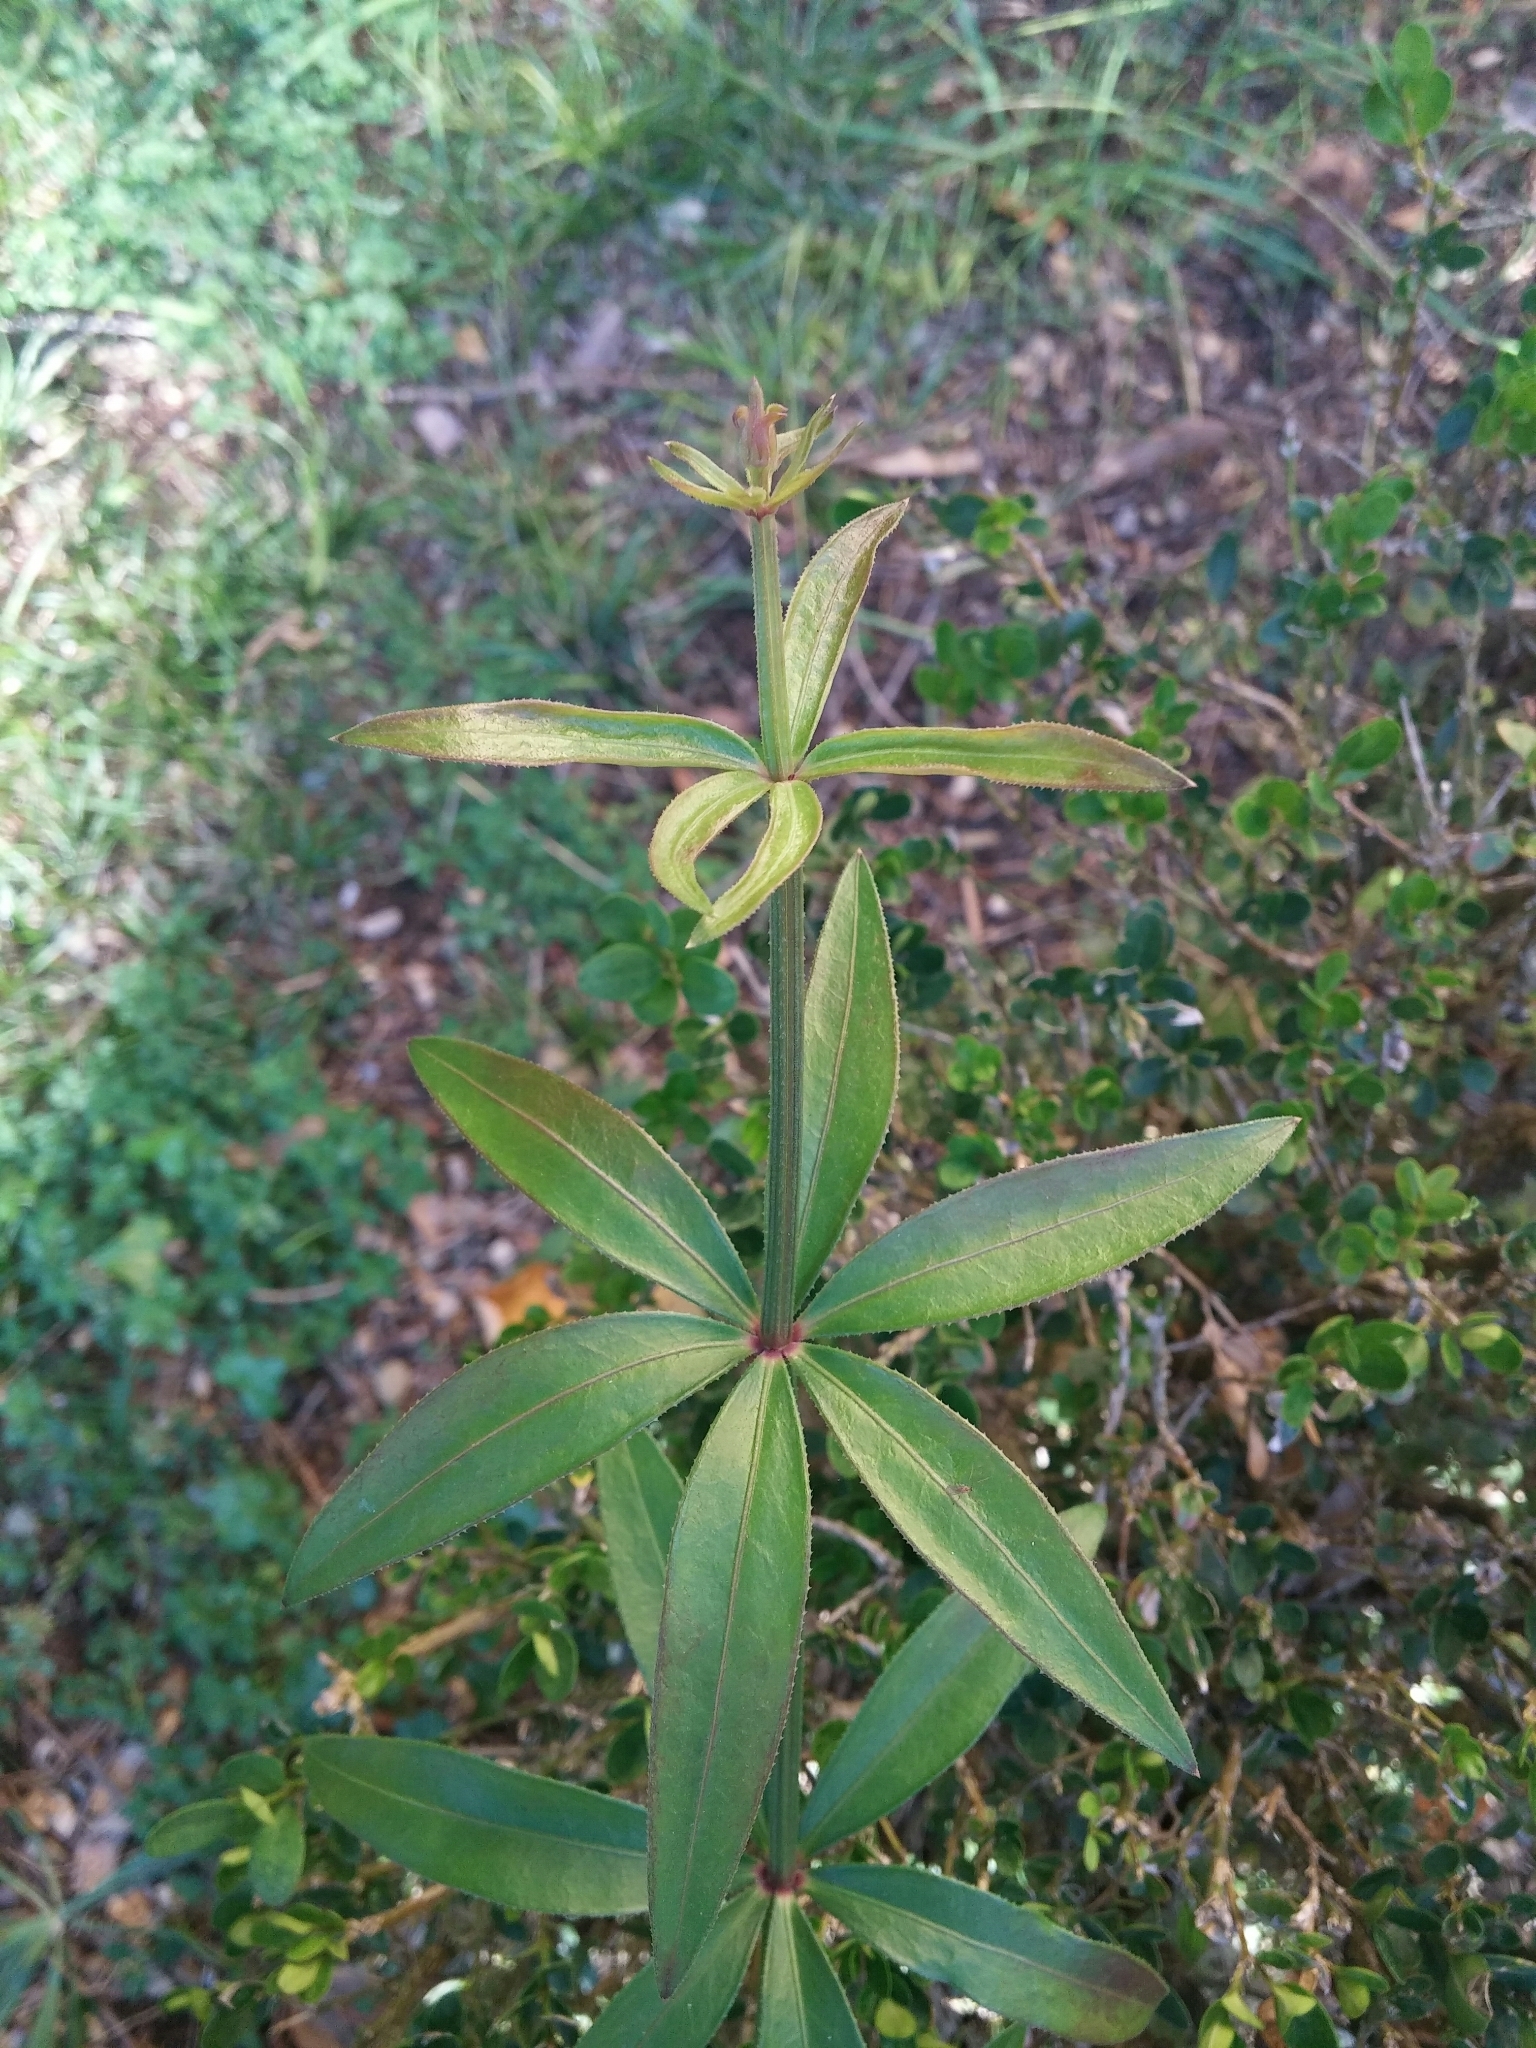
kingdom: Plantae
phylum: Tracheophyta
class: Magnoliopsida
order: Gentianales
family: Rubiaceae
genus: Rubia
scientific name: Rubia peregrina
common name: Wild madder
